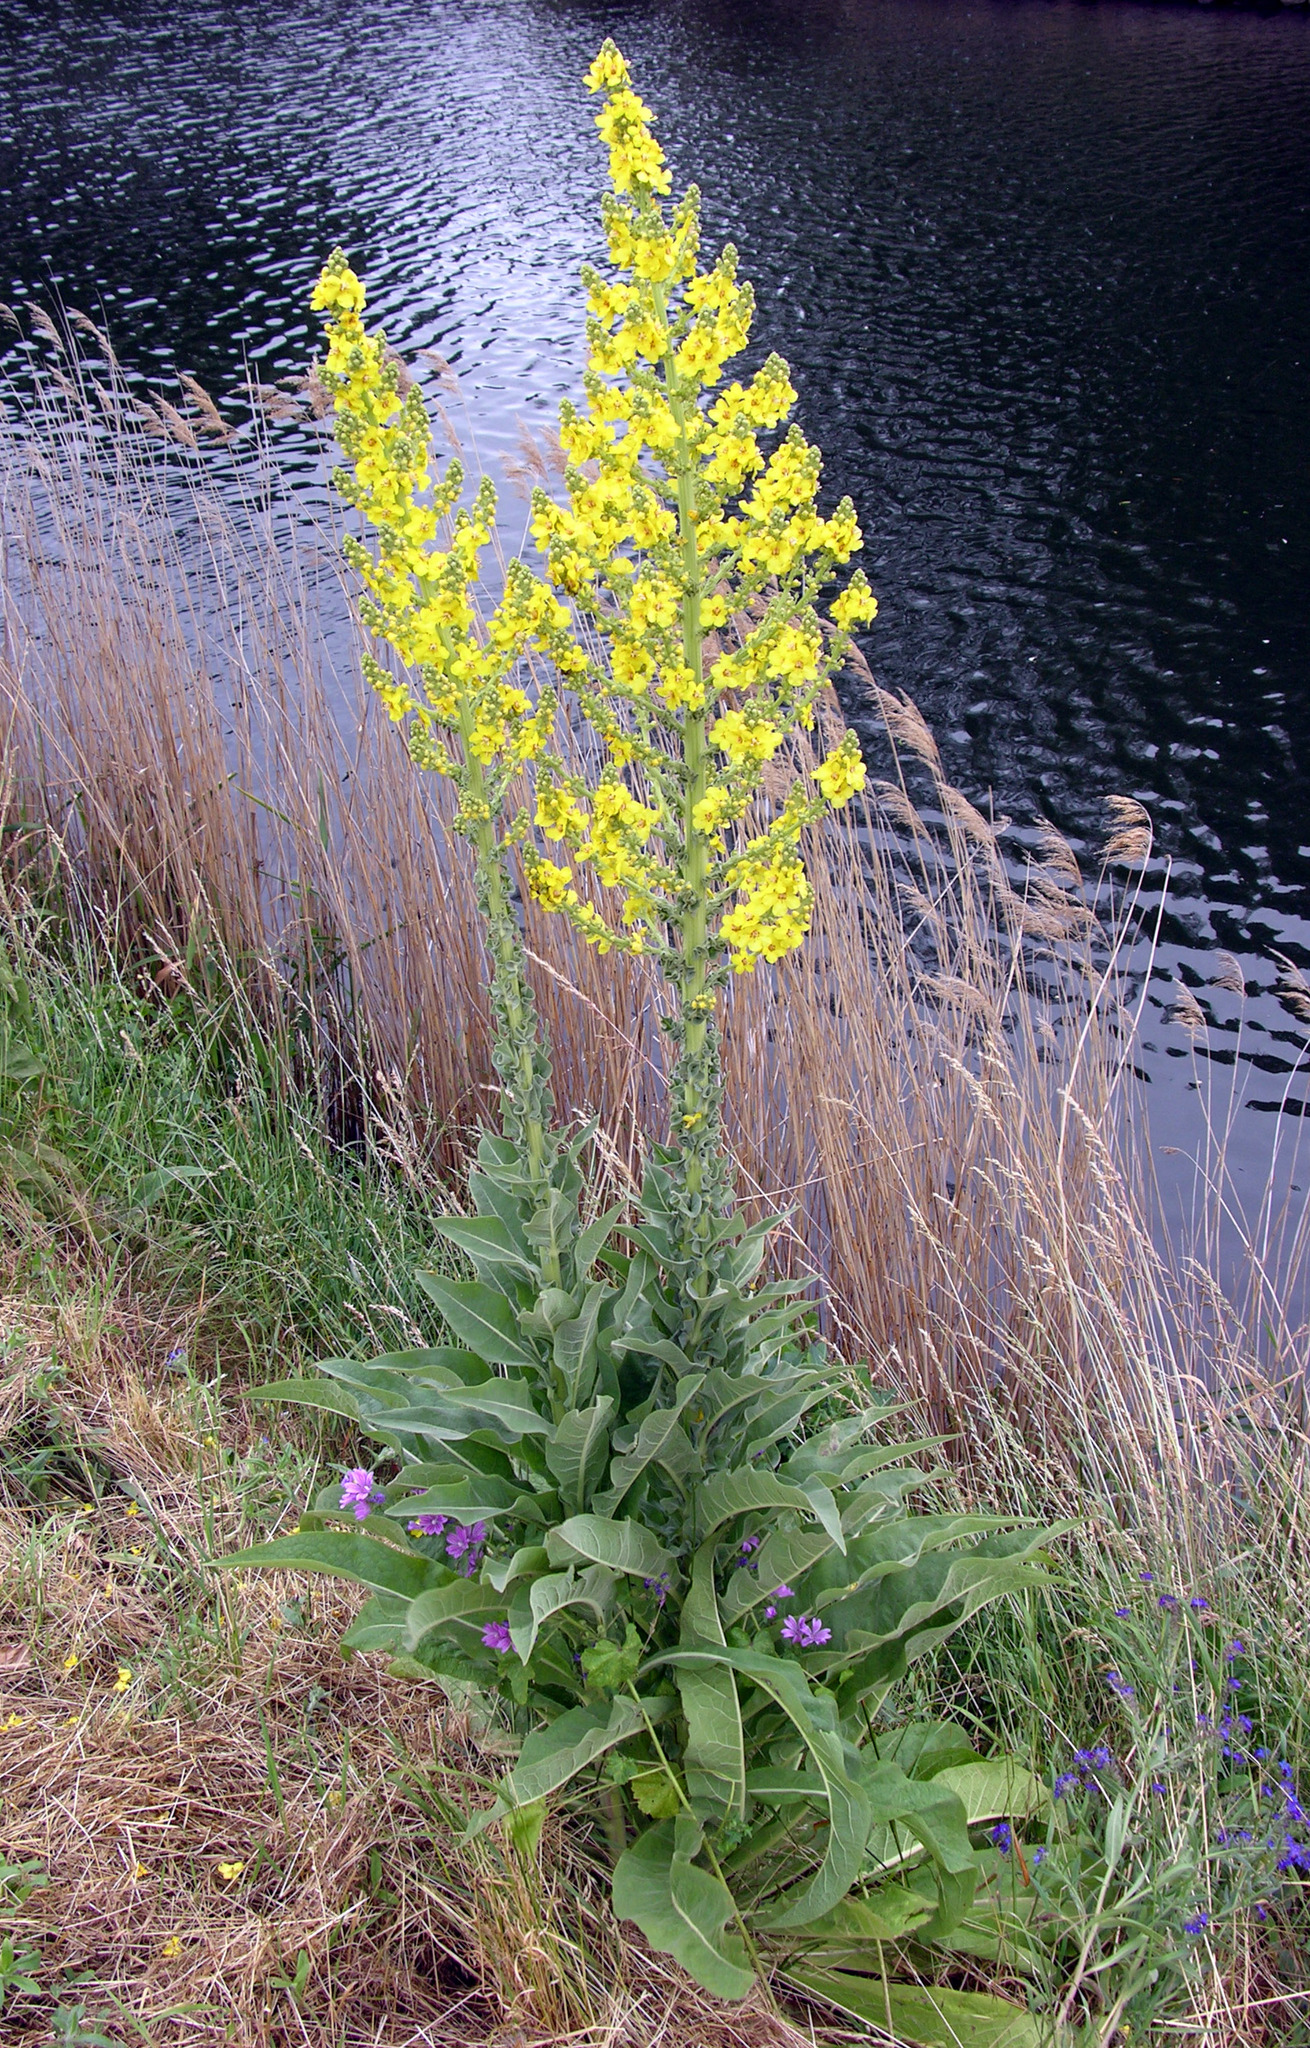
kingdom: Plantae
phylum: Tracheophyta
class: Magnoliopsida
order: Lamiales
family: Scrophulariaceae
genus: Verbascum
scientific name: Verbascum speciosum
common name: Hungarian mullein
